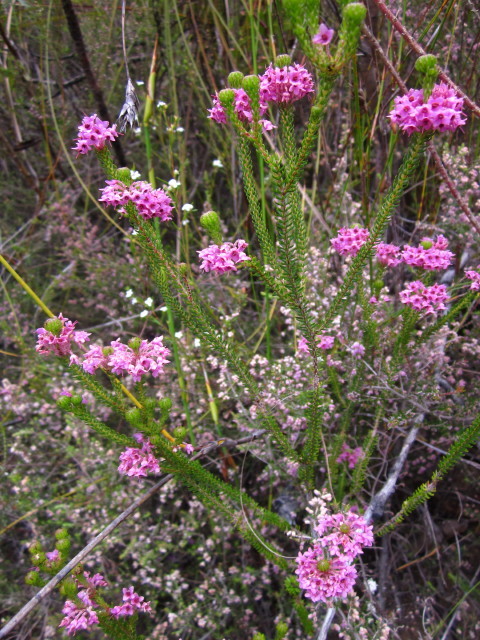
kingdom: Plantae
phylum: Tracheophyta
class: Magnoliopsida
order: Ericales
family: Ericaceae
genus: Erica
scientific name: Erica seriphiifolia
